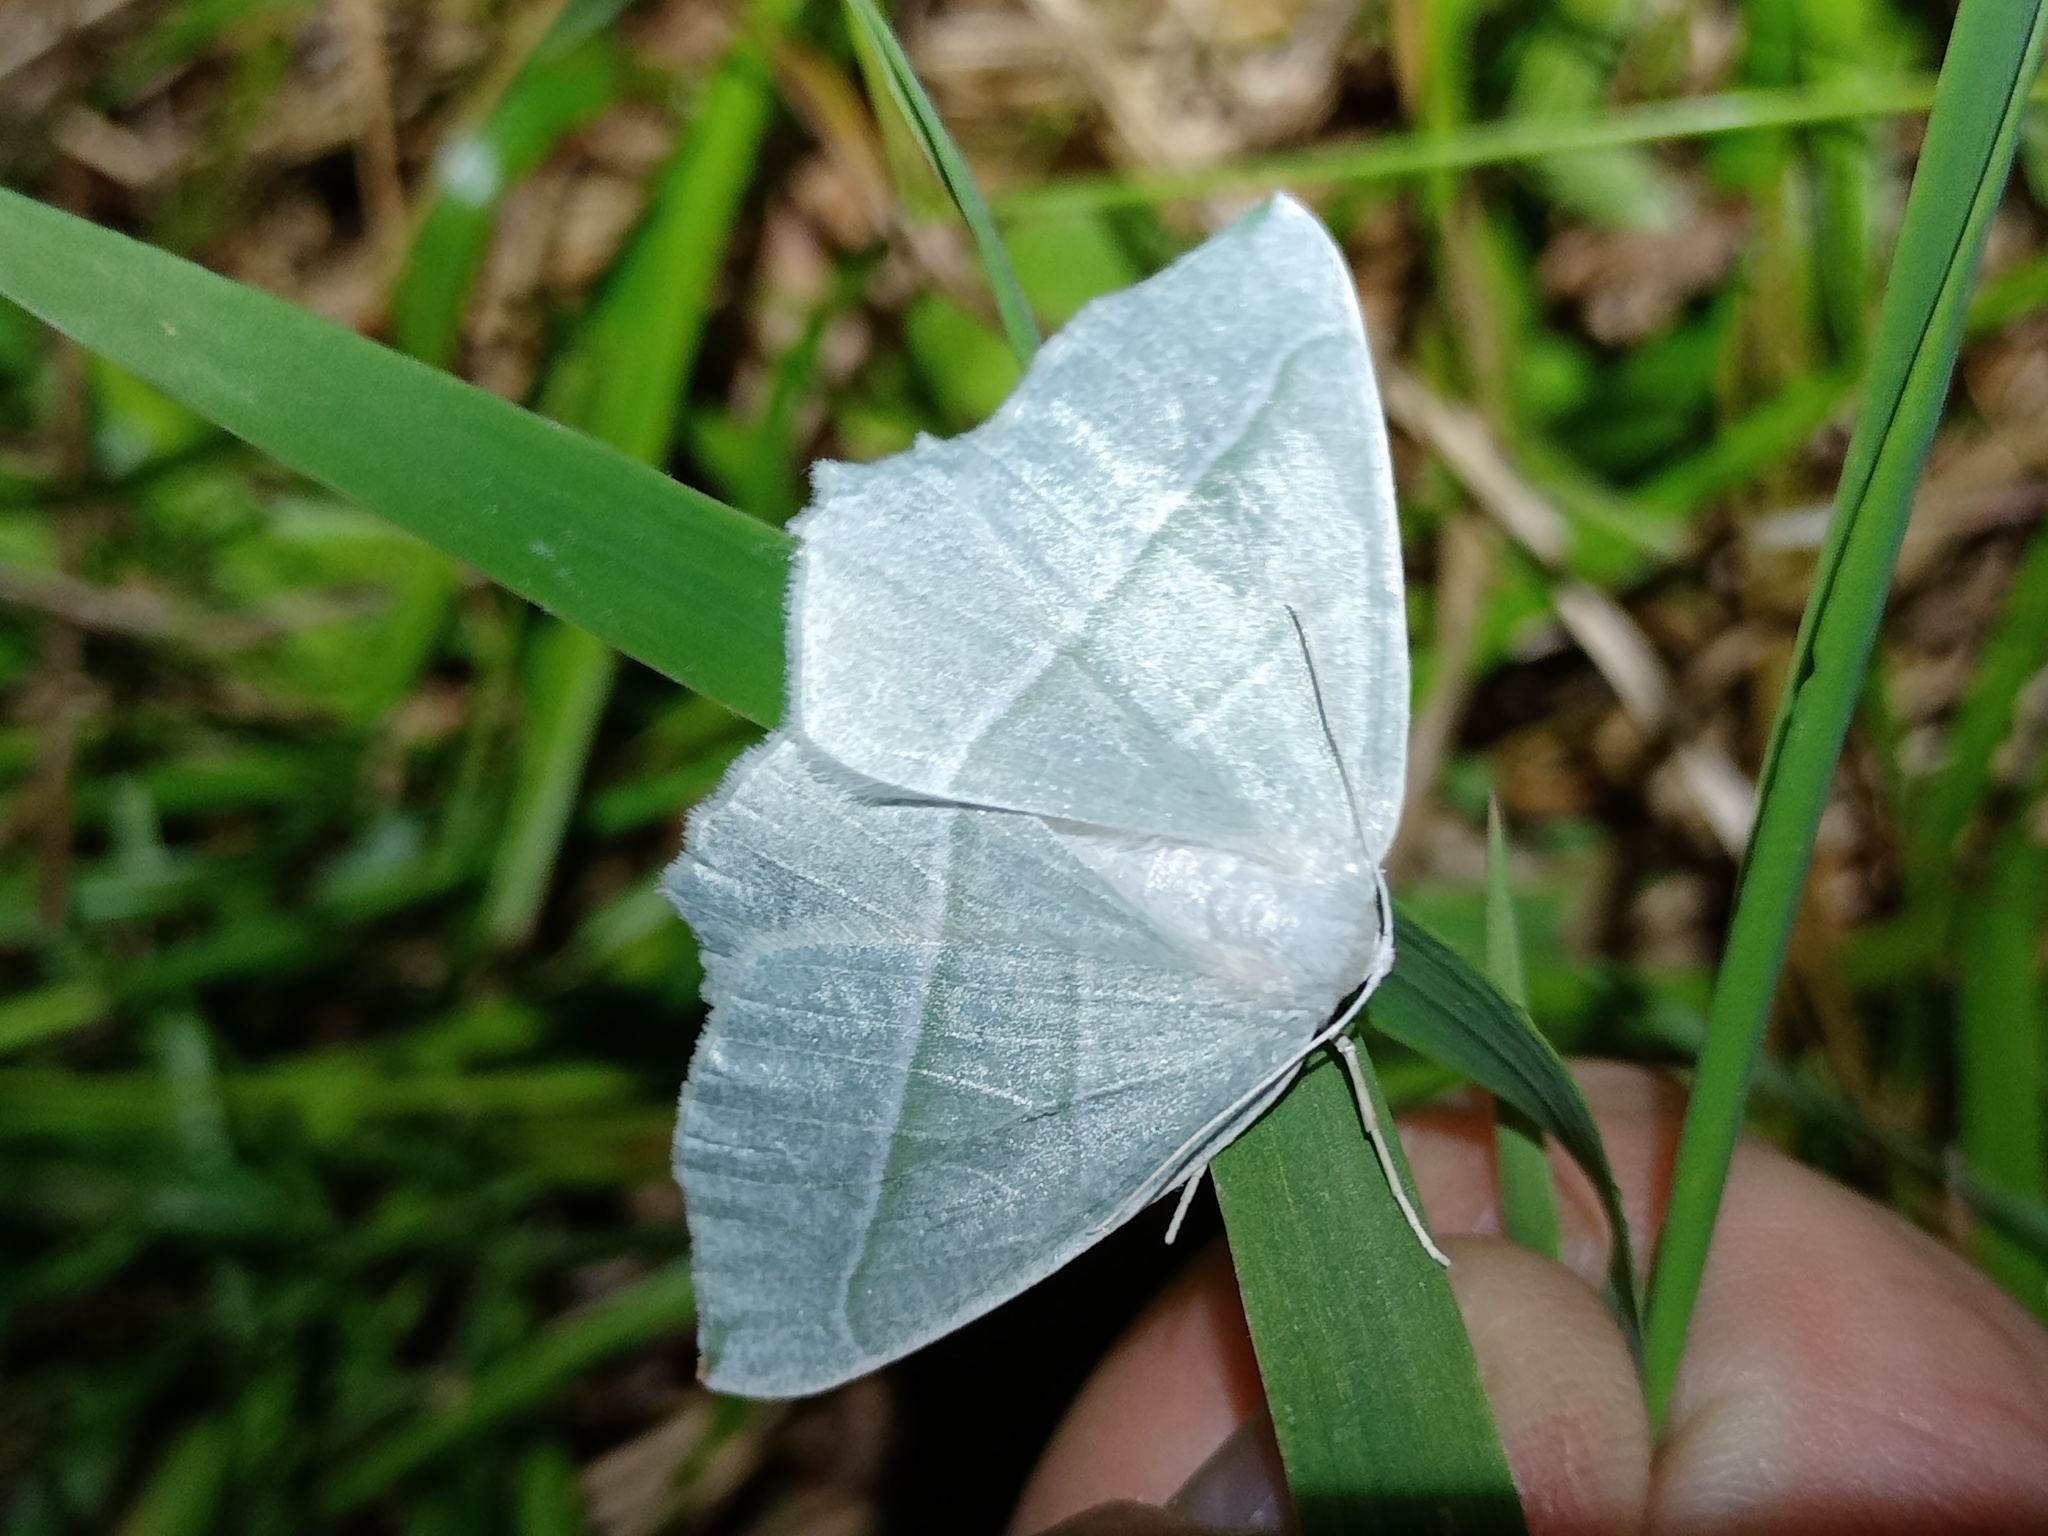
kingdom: Animalia
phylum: Arthropoda
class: Insecta
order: Lepidoptera
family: Geometridae
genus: Campaea
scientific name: Campaea margaritaria
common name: Light emerald
